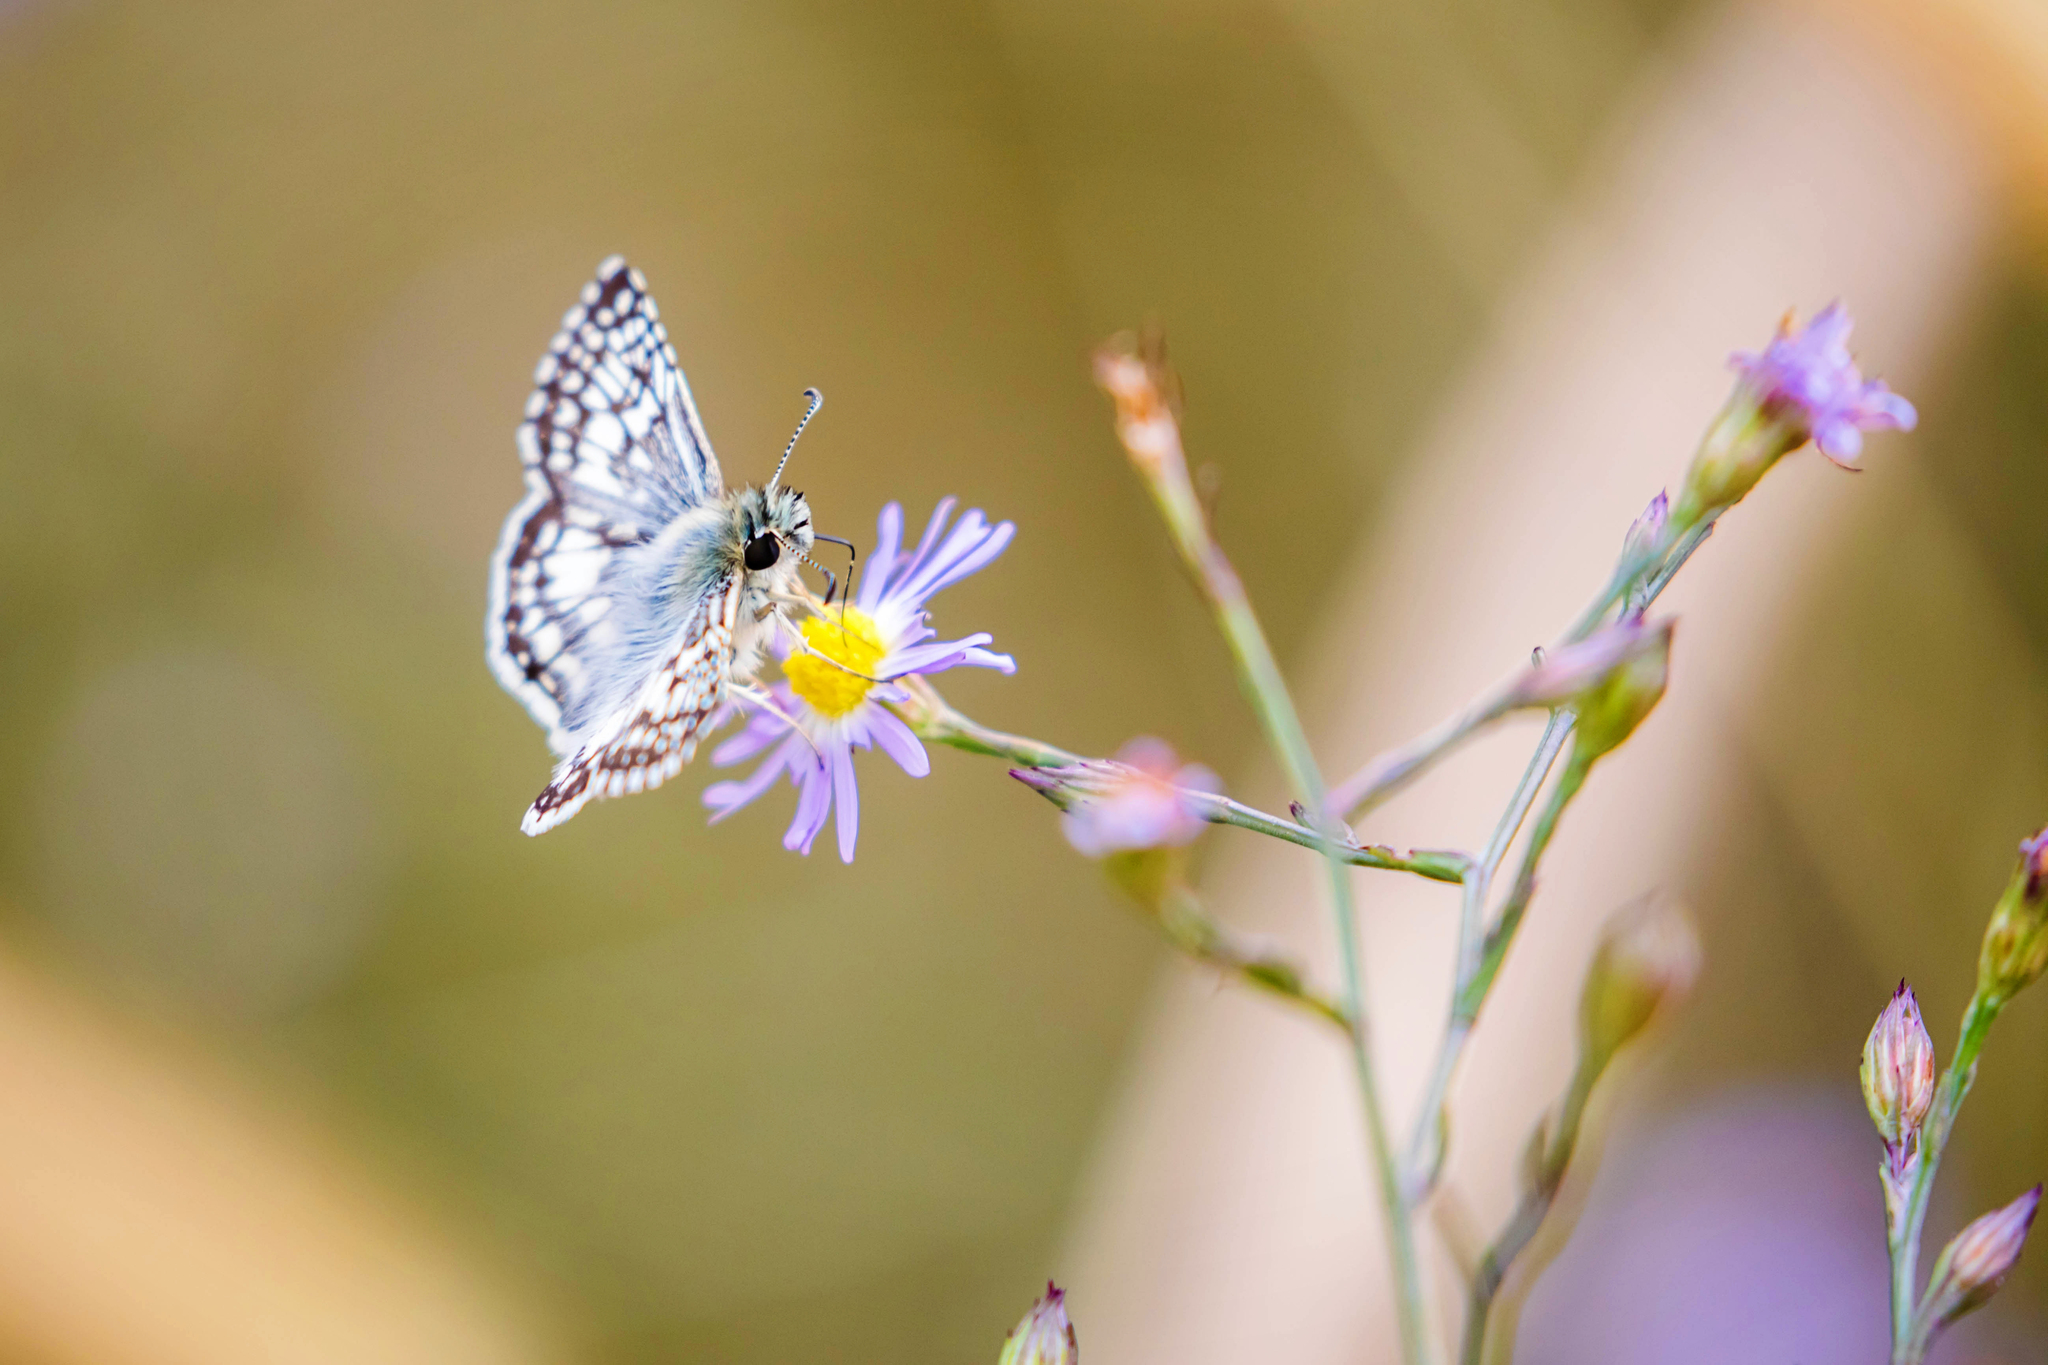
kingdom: Animalia
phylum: Arthropoda
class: Insecta
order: Lepidoptera
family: Hesperiidae
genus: Burnsius
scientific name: Burnsius communis
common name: Common checkered-skipper
